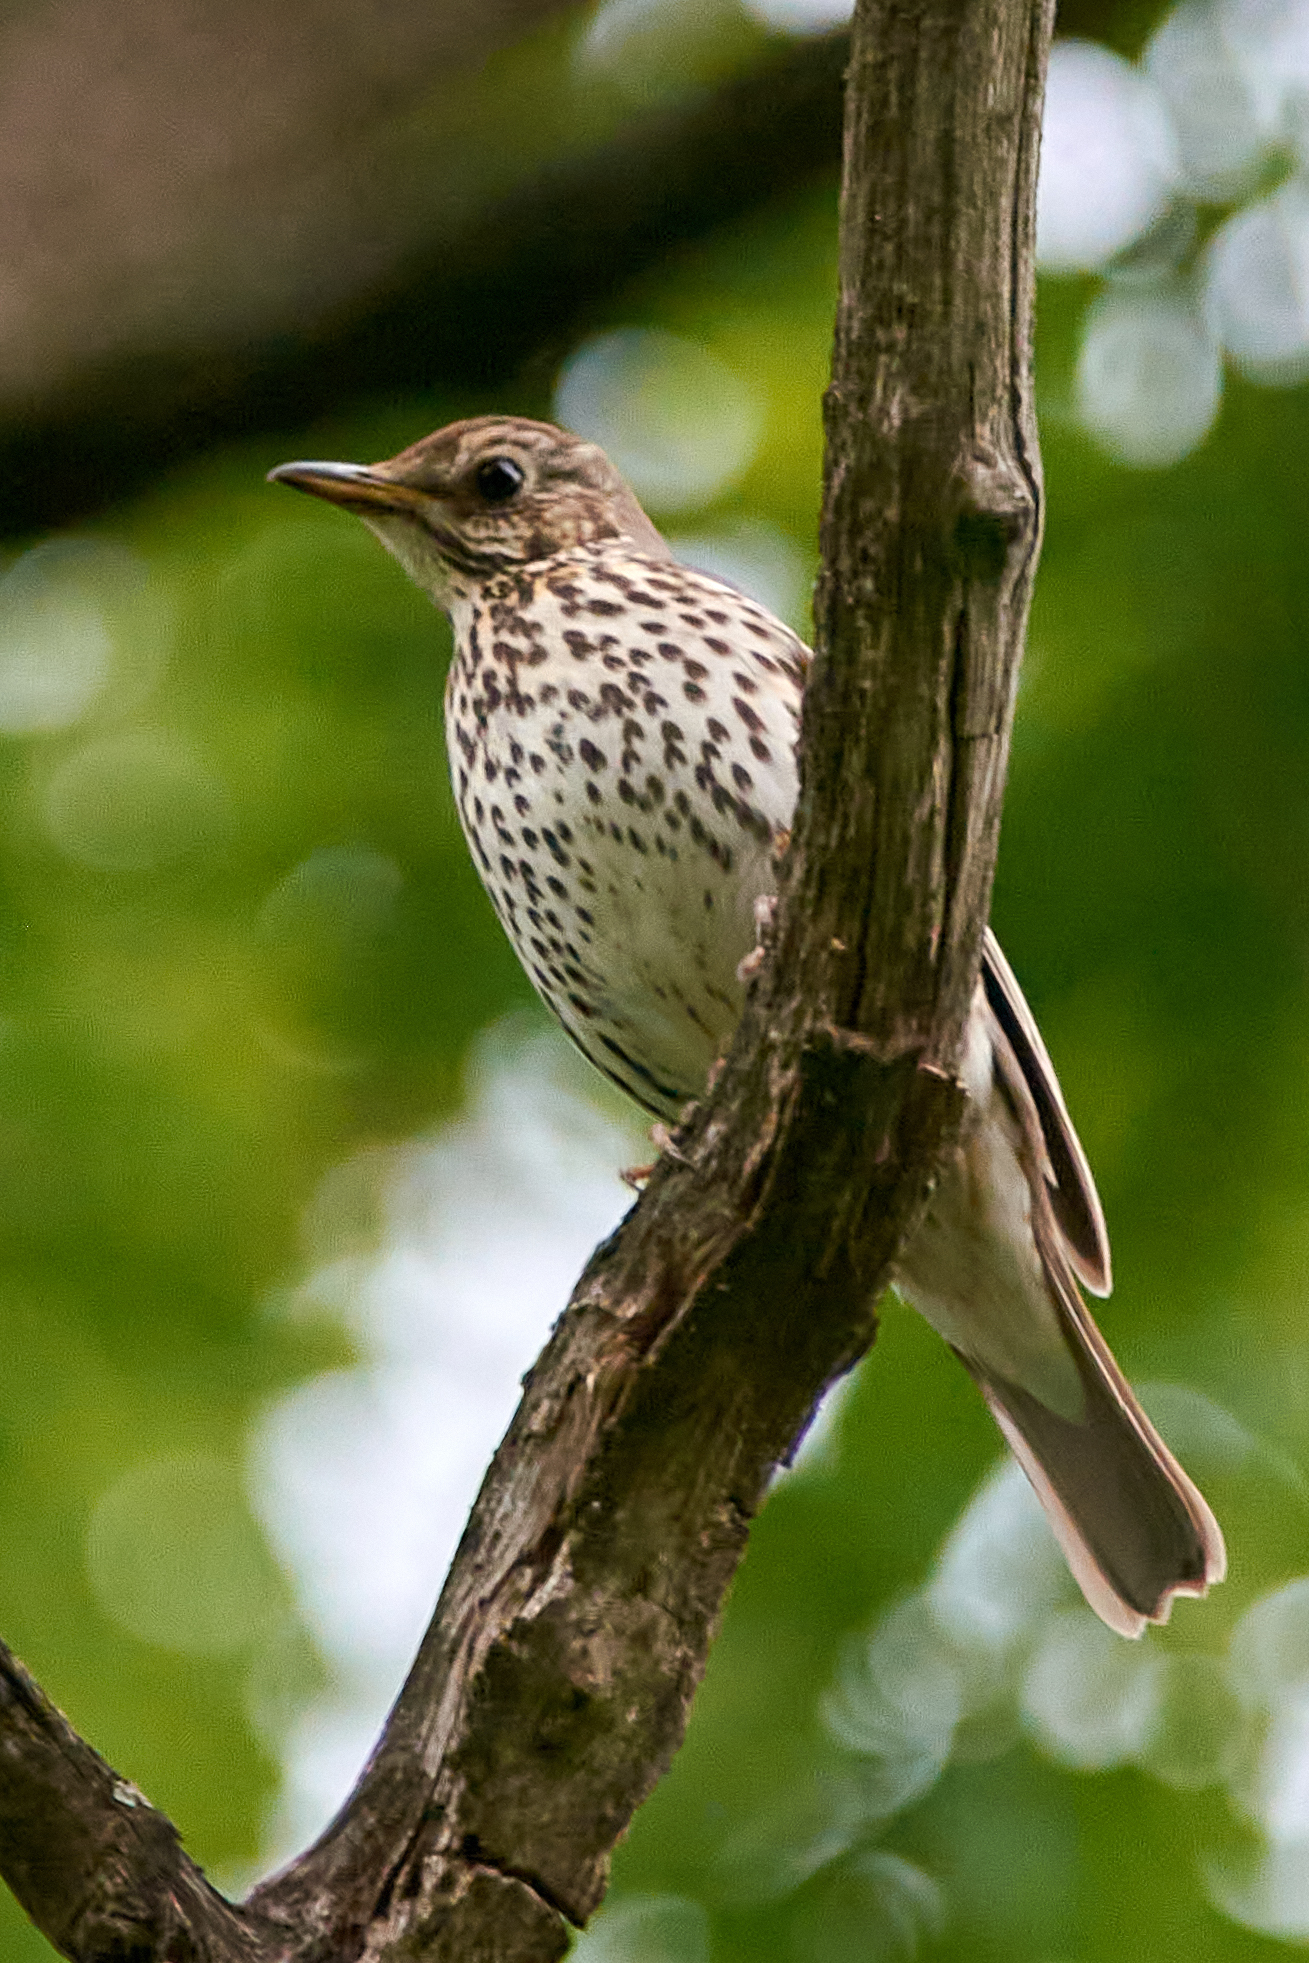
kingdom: Animalia
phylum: Chordata
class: Aves
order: Passeriformes
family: Turdidae
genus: Turdus
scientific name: Turdus philomelos
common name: Song thrush
